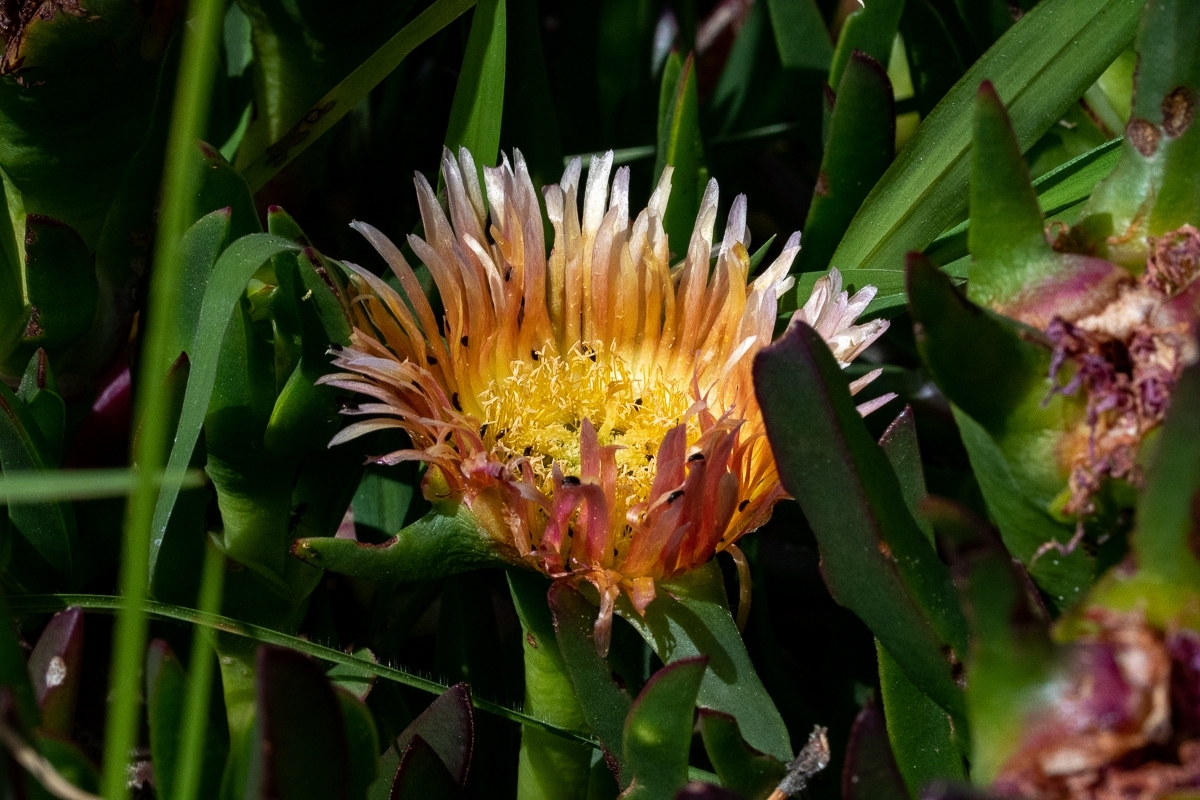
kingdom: Plantae
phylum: Tracheophyta
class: Magnoliopsida
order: Caryophyllales
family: Aizoaceae
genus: Carpobrotus
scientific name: Carpobrotus edulis
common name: Hottentot-fig
